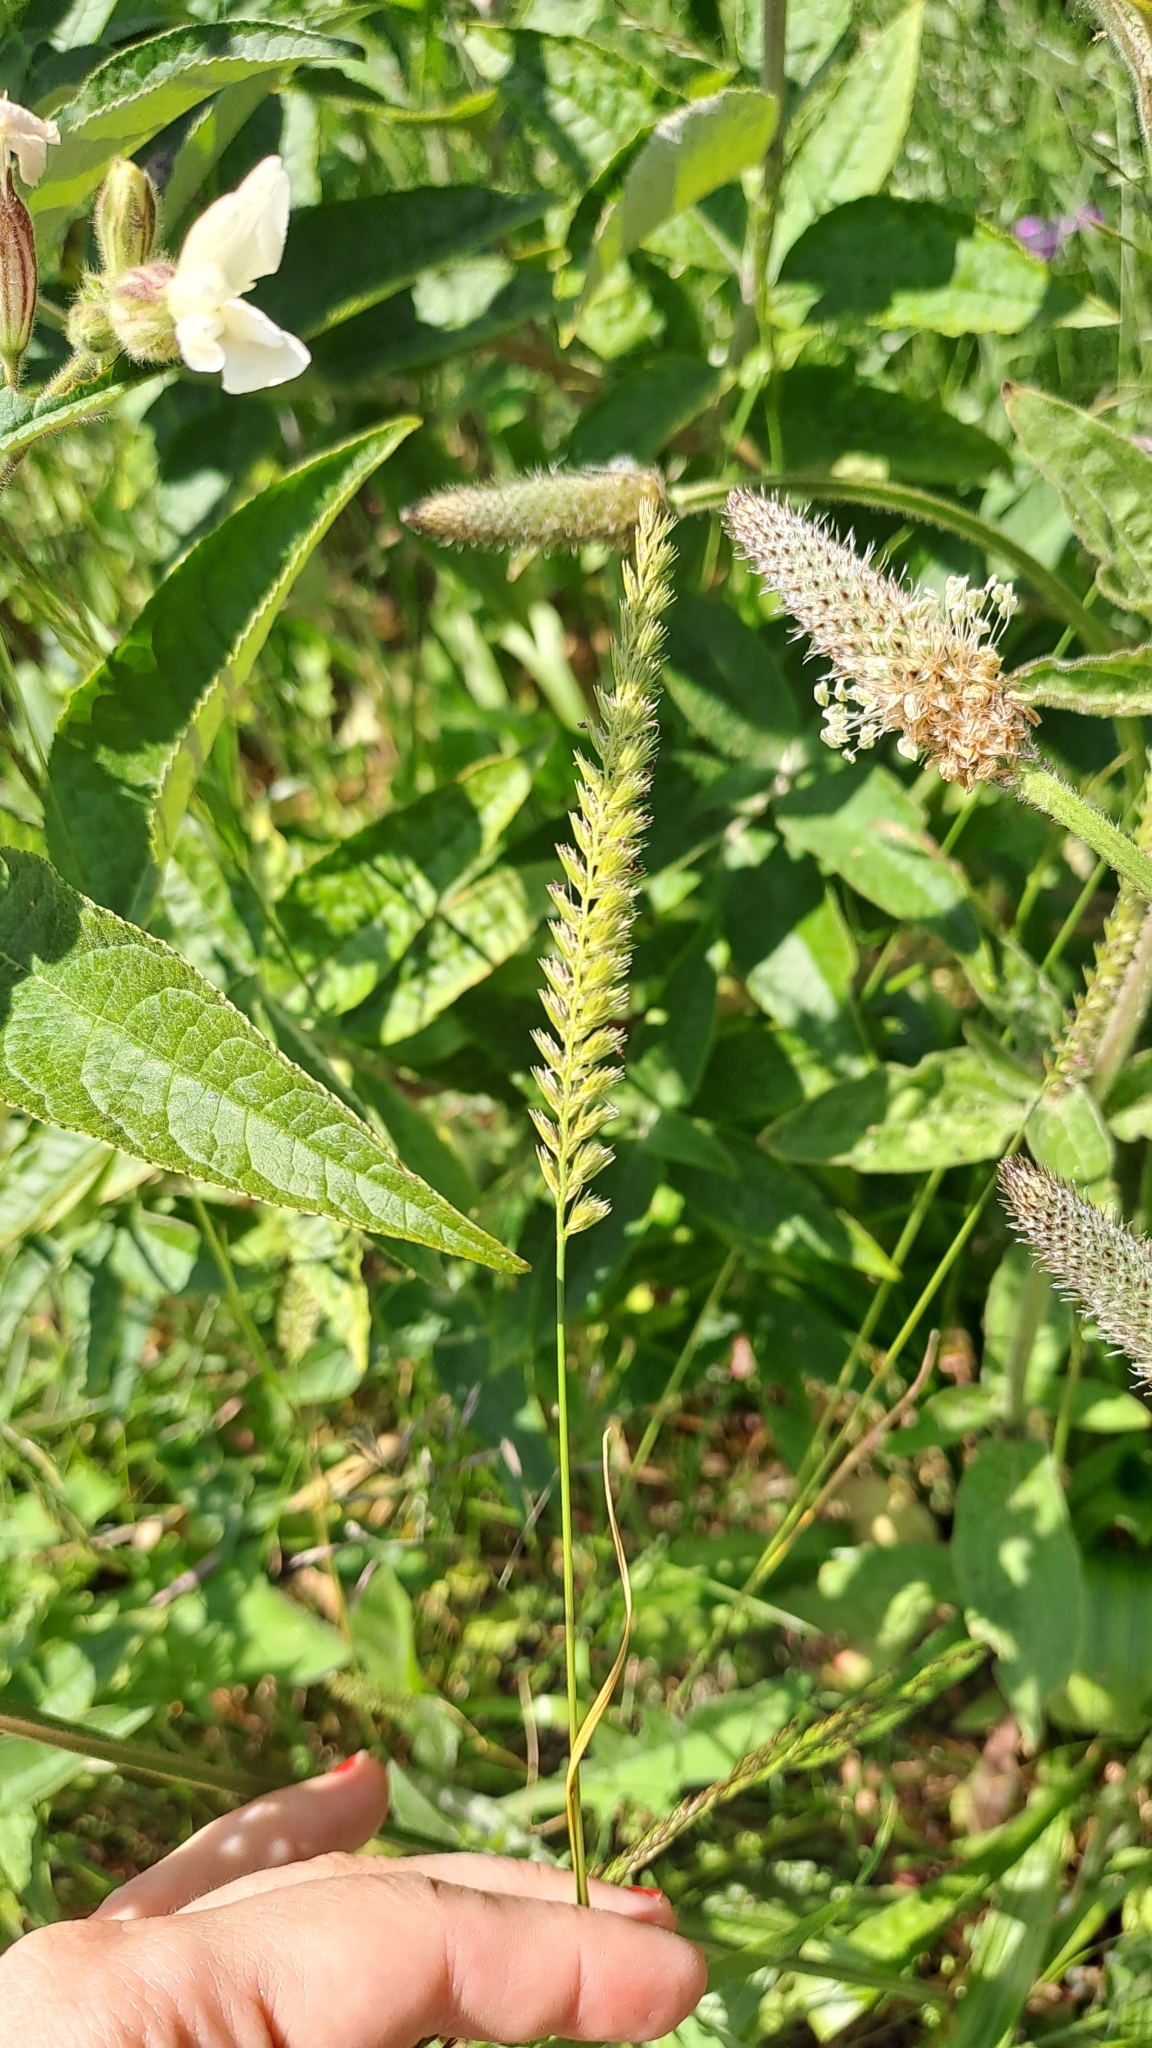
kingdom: Plantae
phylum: Tracheophyta
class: Liliopsida
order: Poales
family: Poaceae
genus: Cynosurus
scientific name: Cynosurus cristatus
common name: Crested dog's-tail
